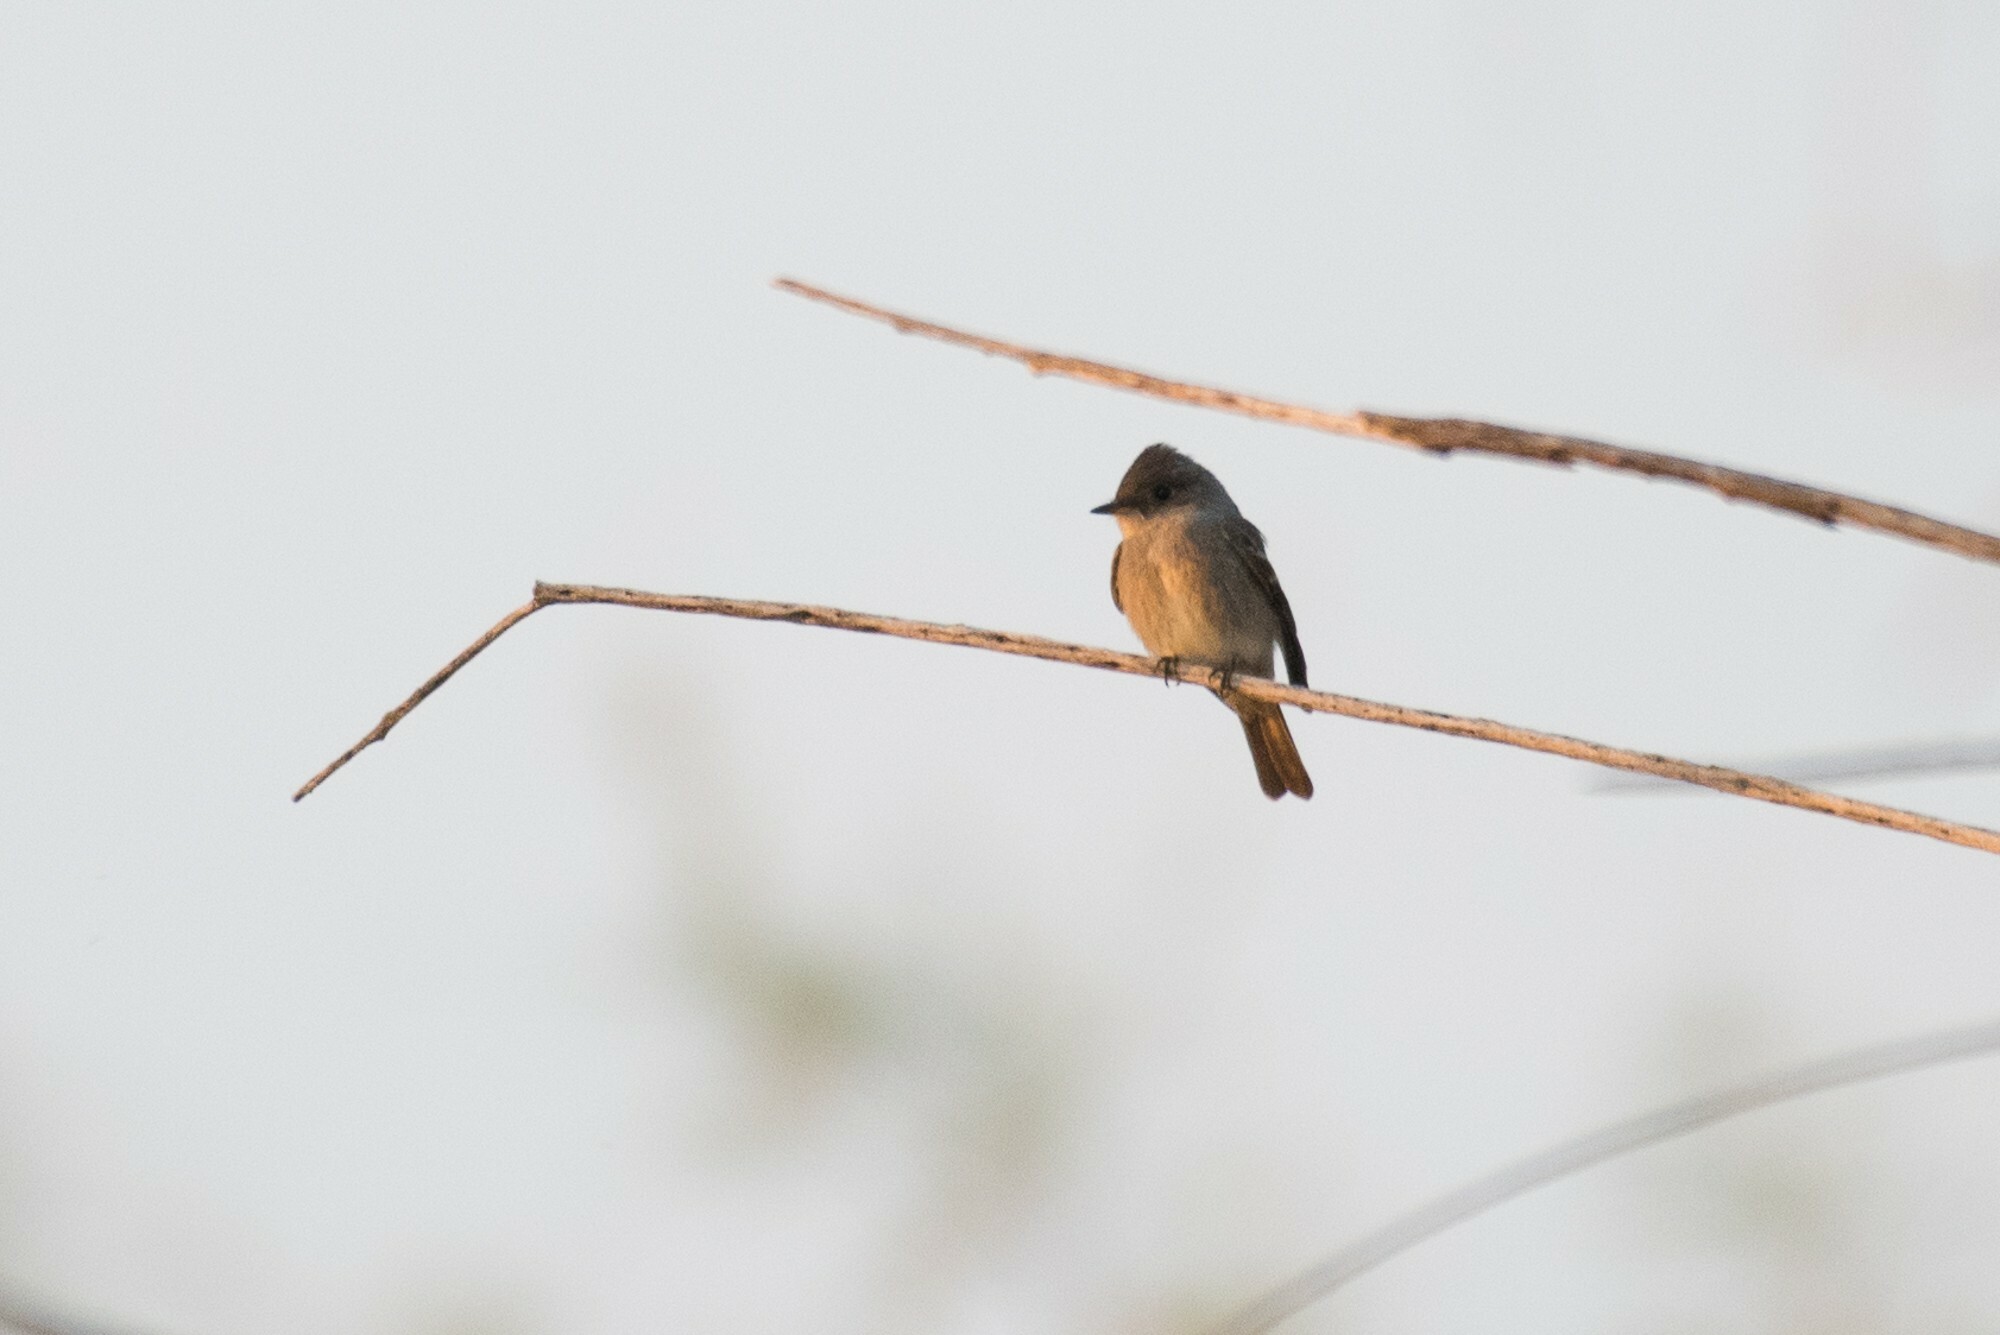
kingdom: Animalia
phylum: Chordata
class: Aves
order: Passeriformes
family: Tyrannidae
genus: Contopus
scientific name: Contopus sordidulus
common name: Western wood-pewee
